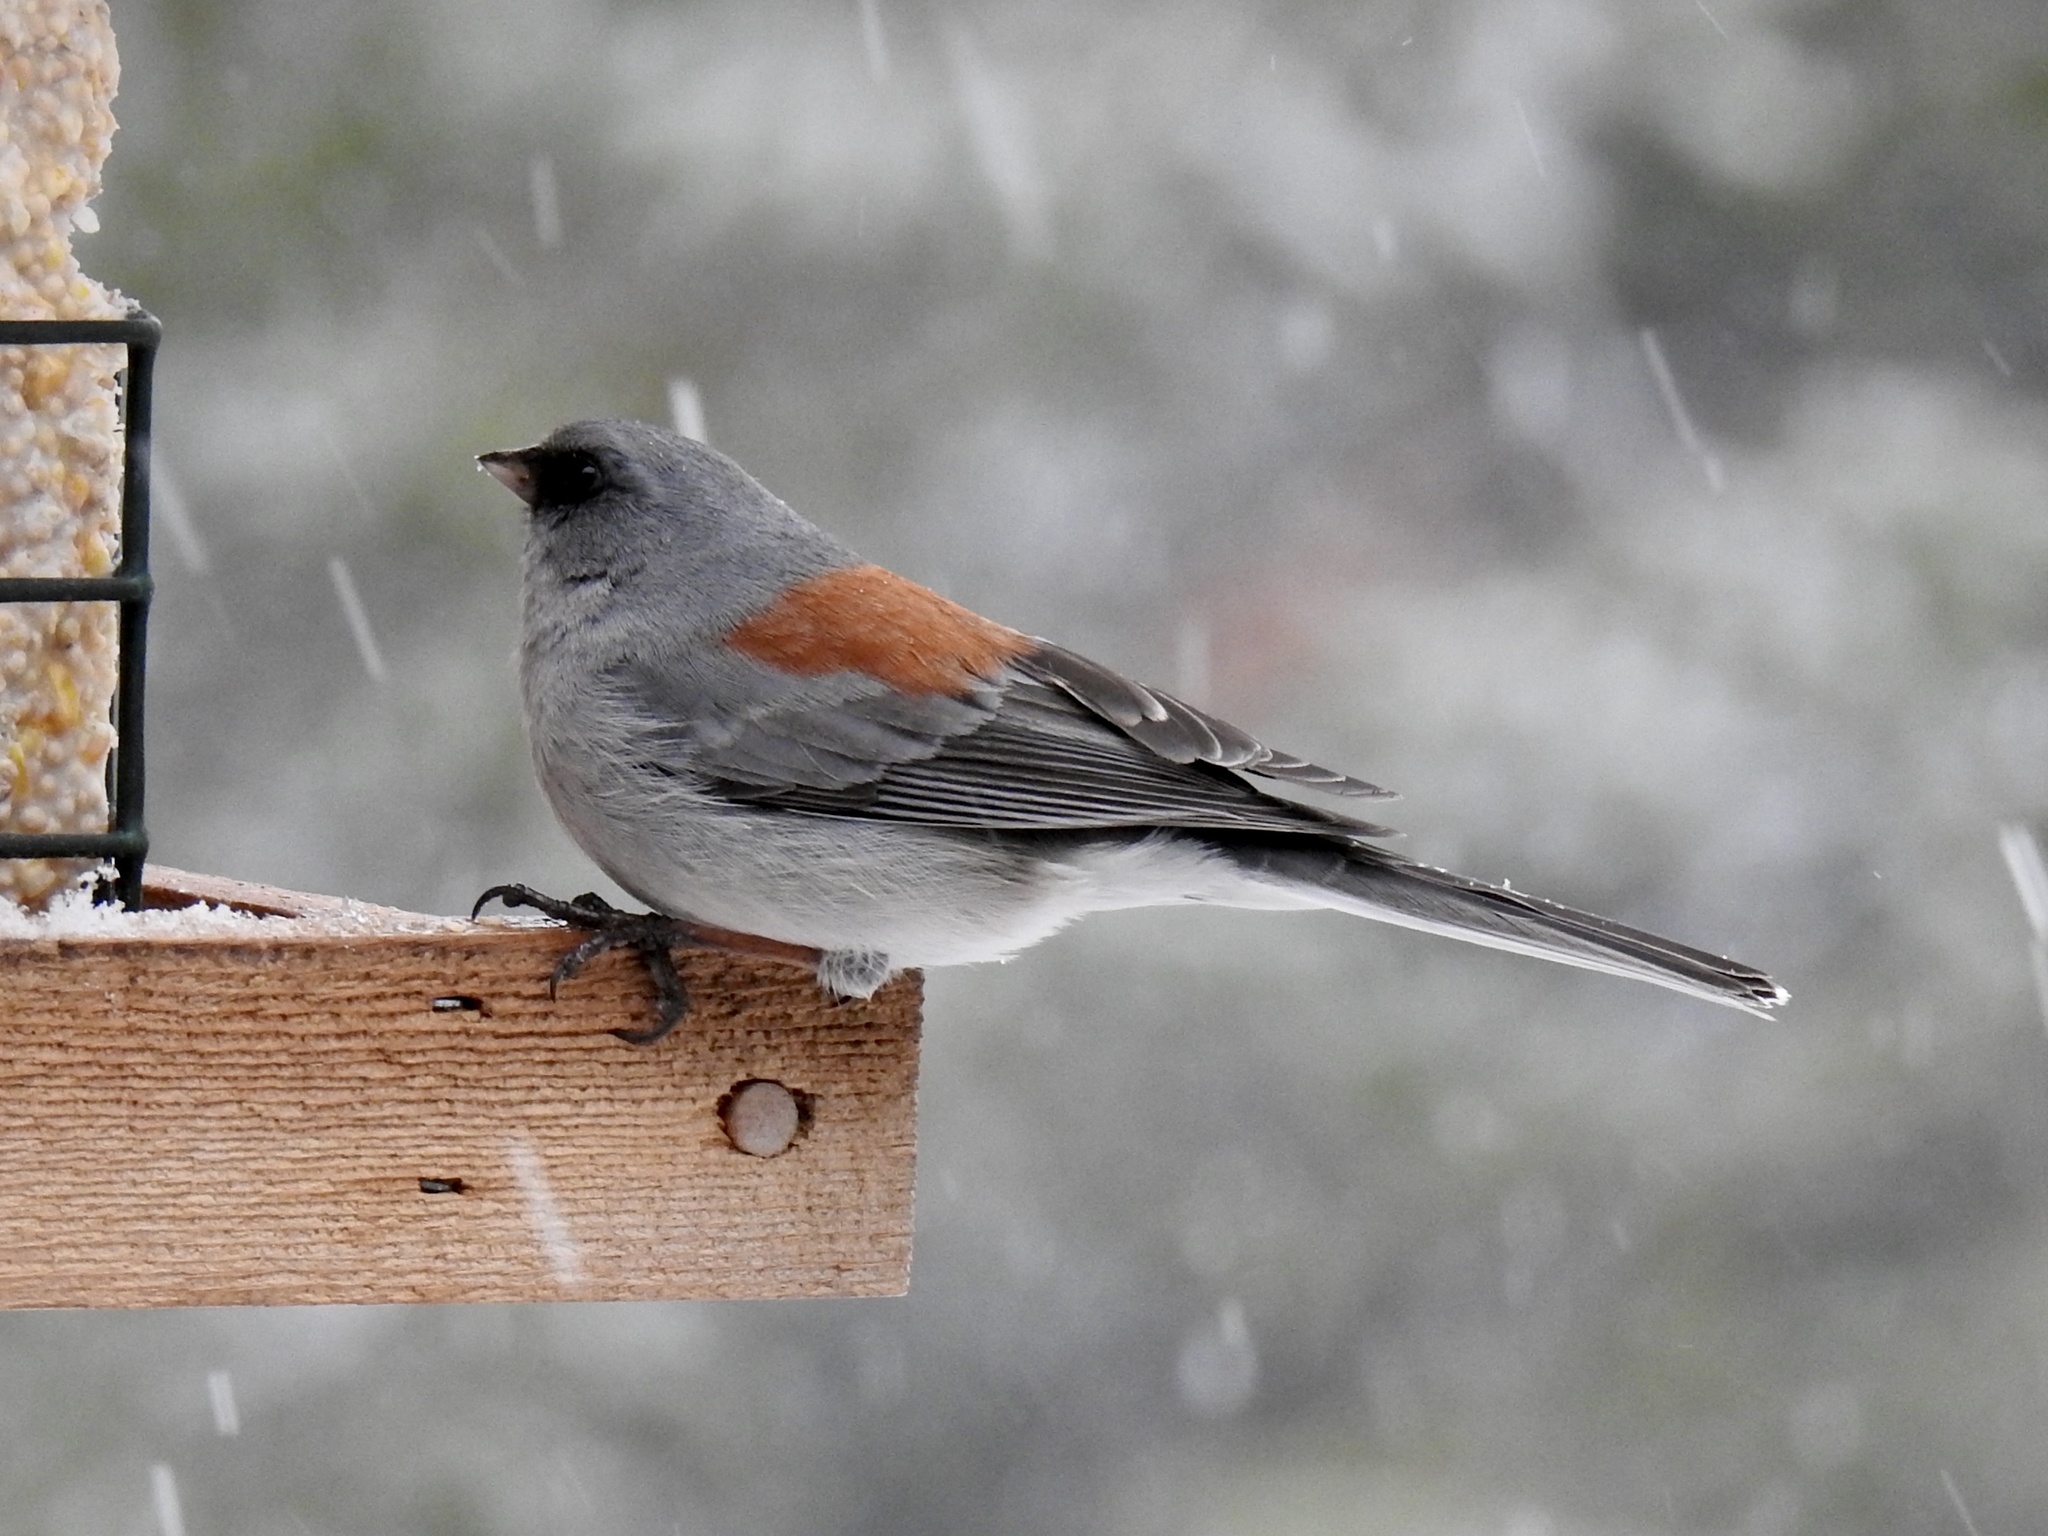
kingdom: Animalia
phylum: Chordata
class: Aves
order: Passeriformes
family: Passerellidae
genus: Junco
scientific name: Junco hyemalis
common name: Dark-eyed junco
